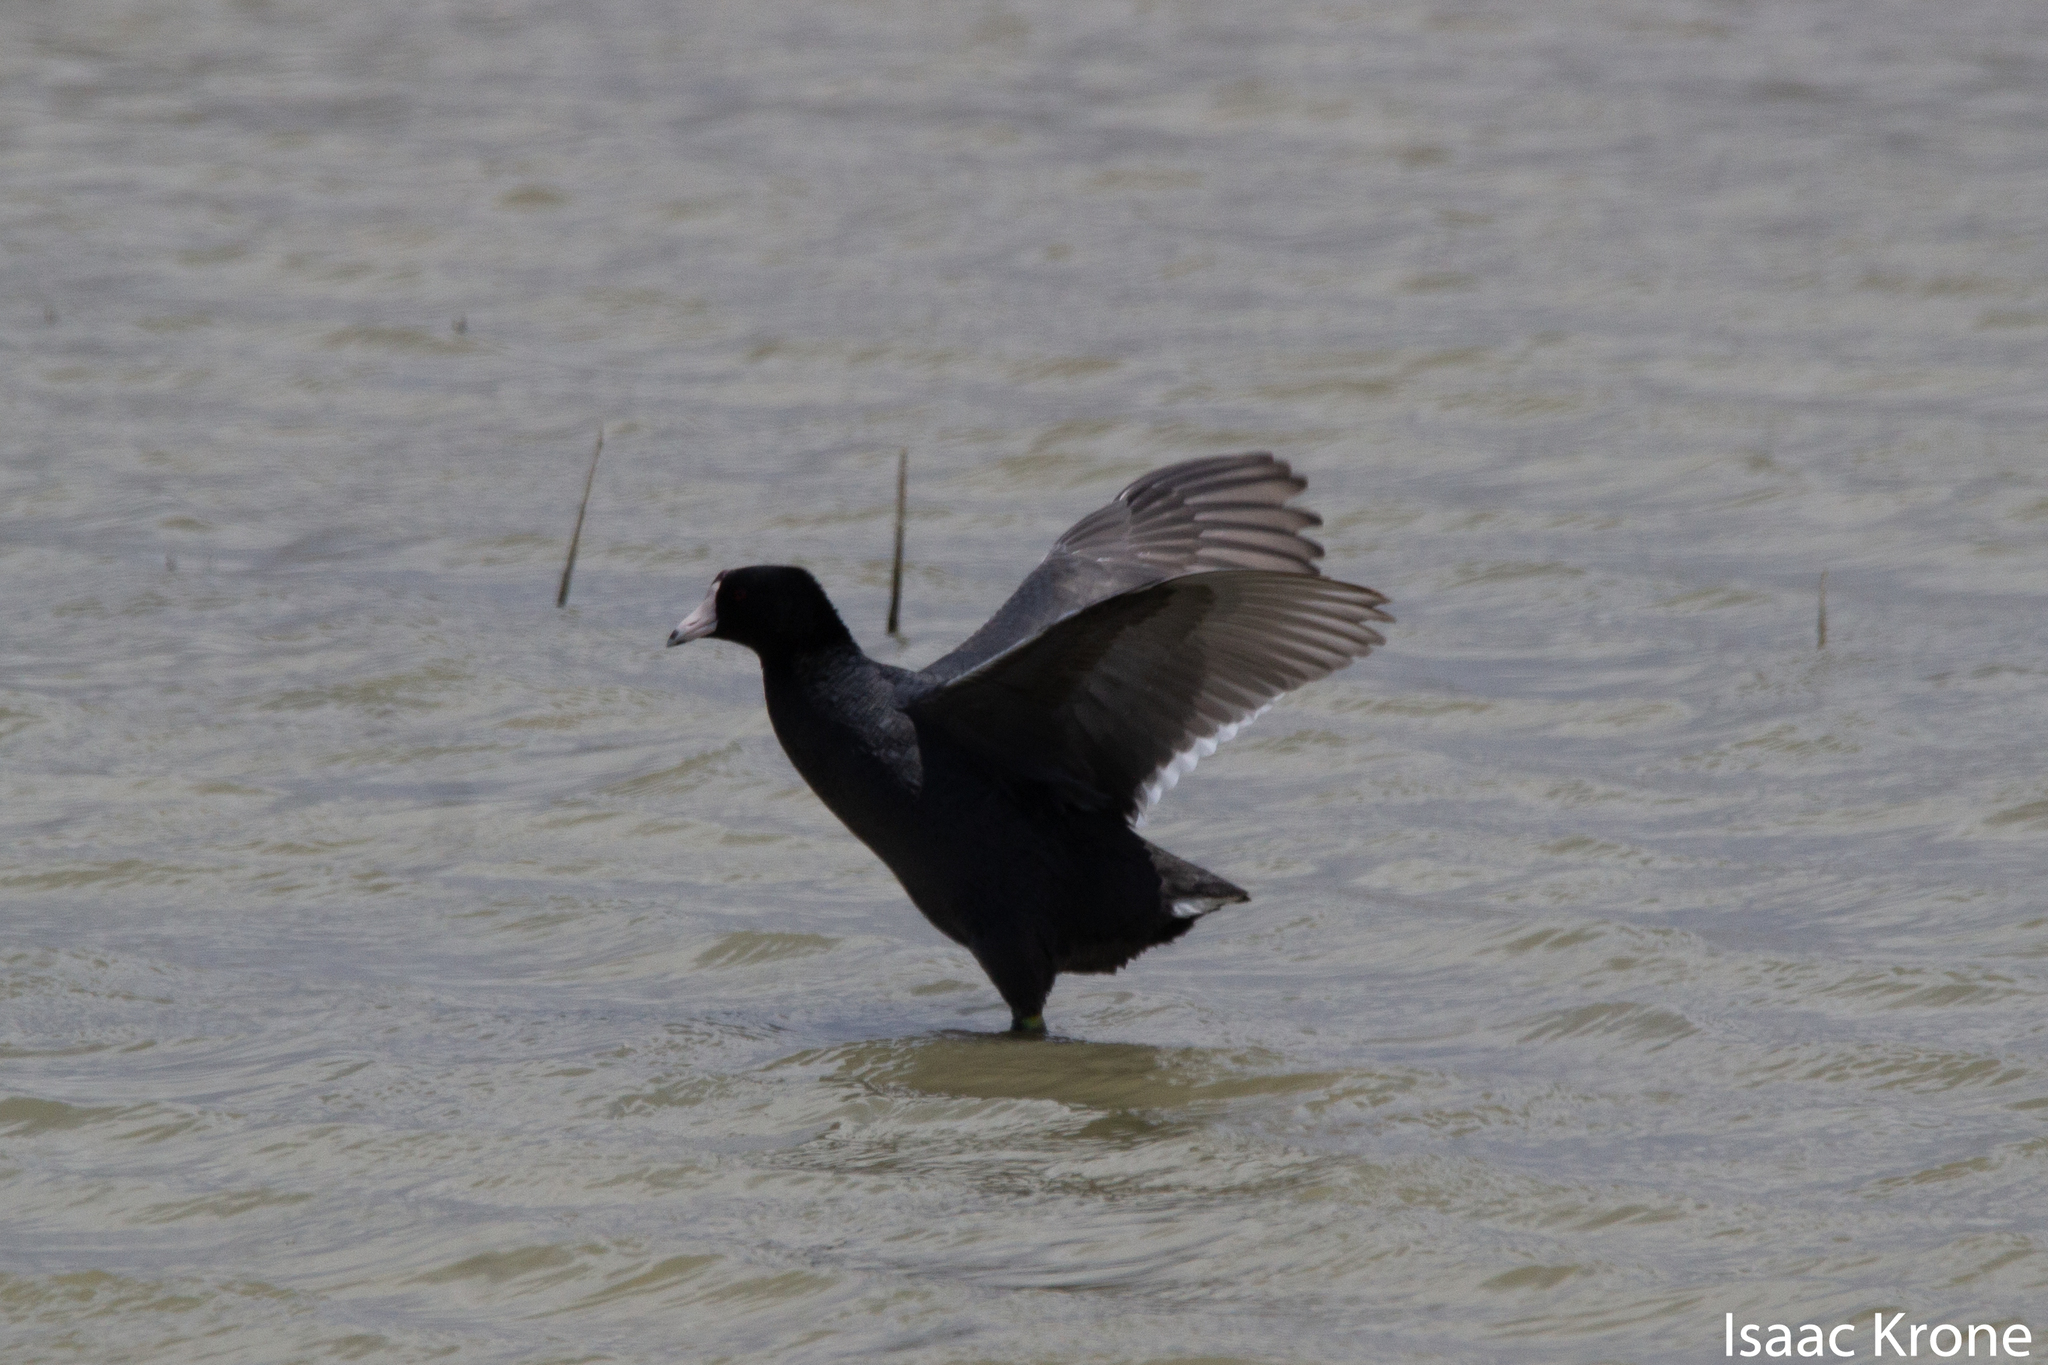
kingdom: Animalia
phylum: Chordata
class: Aves
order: Gruiformes
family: Rallidae
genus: Fulica
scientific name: Fulica americana
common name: American coot
